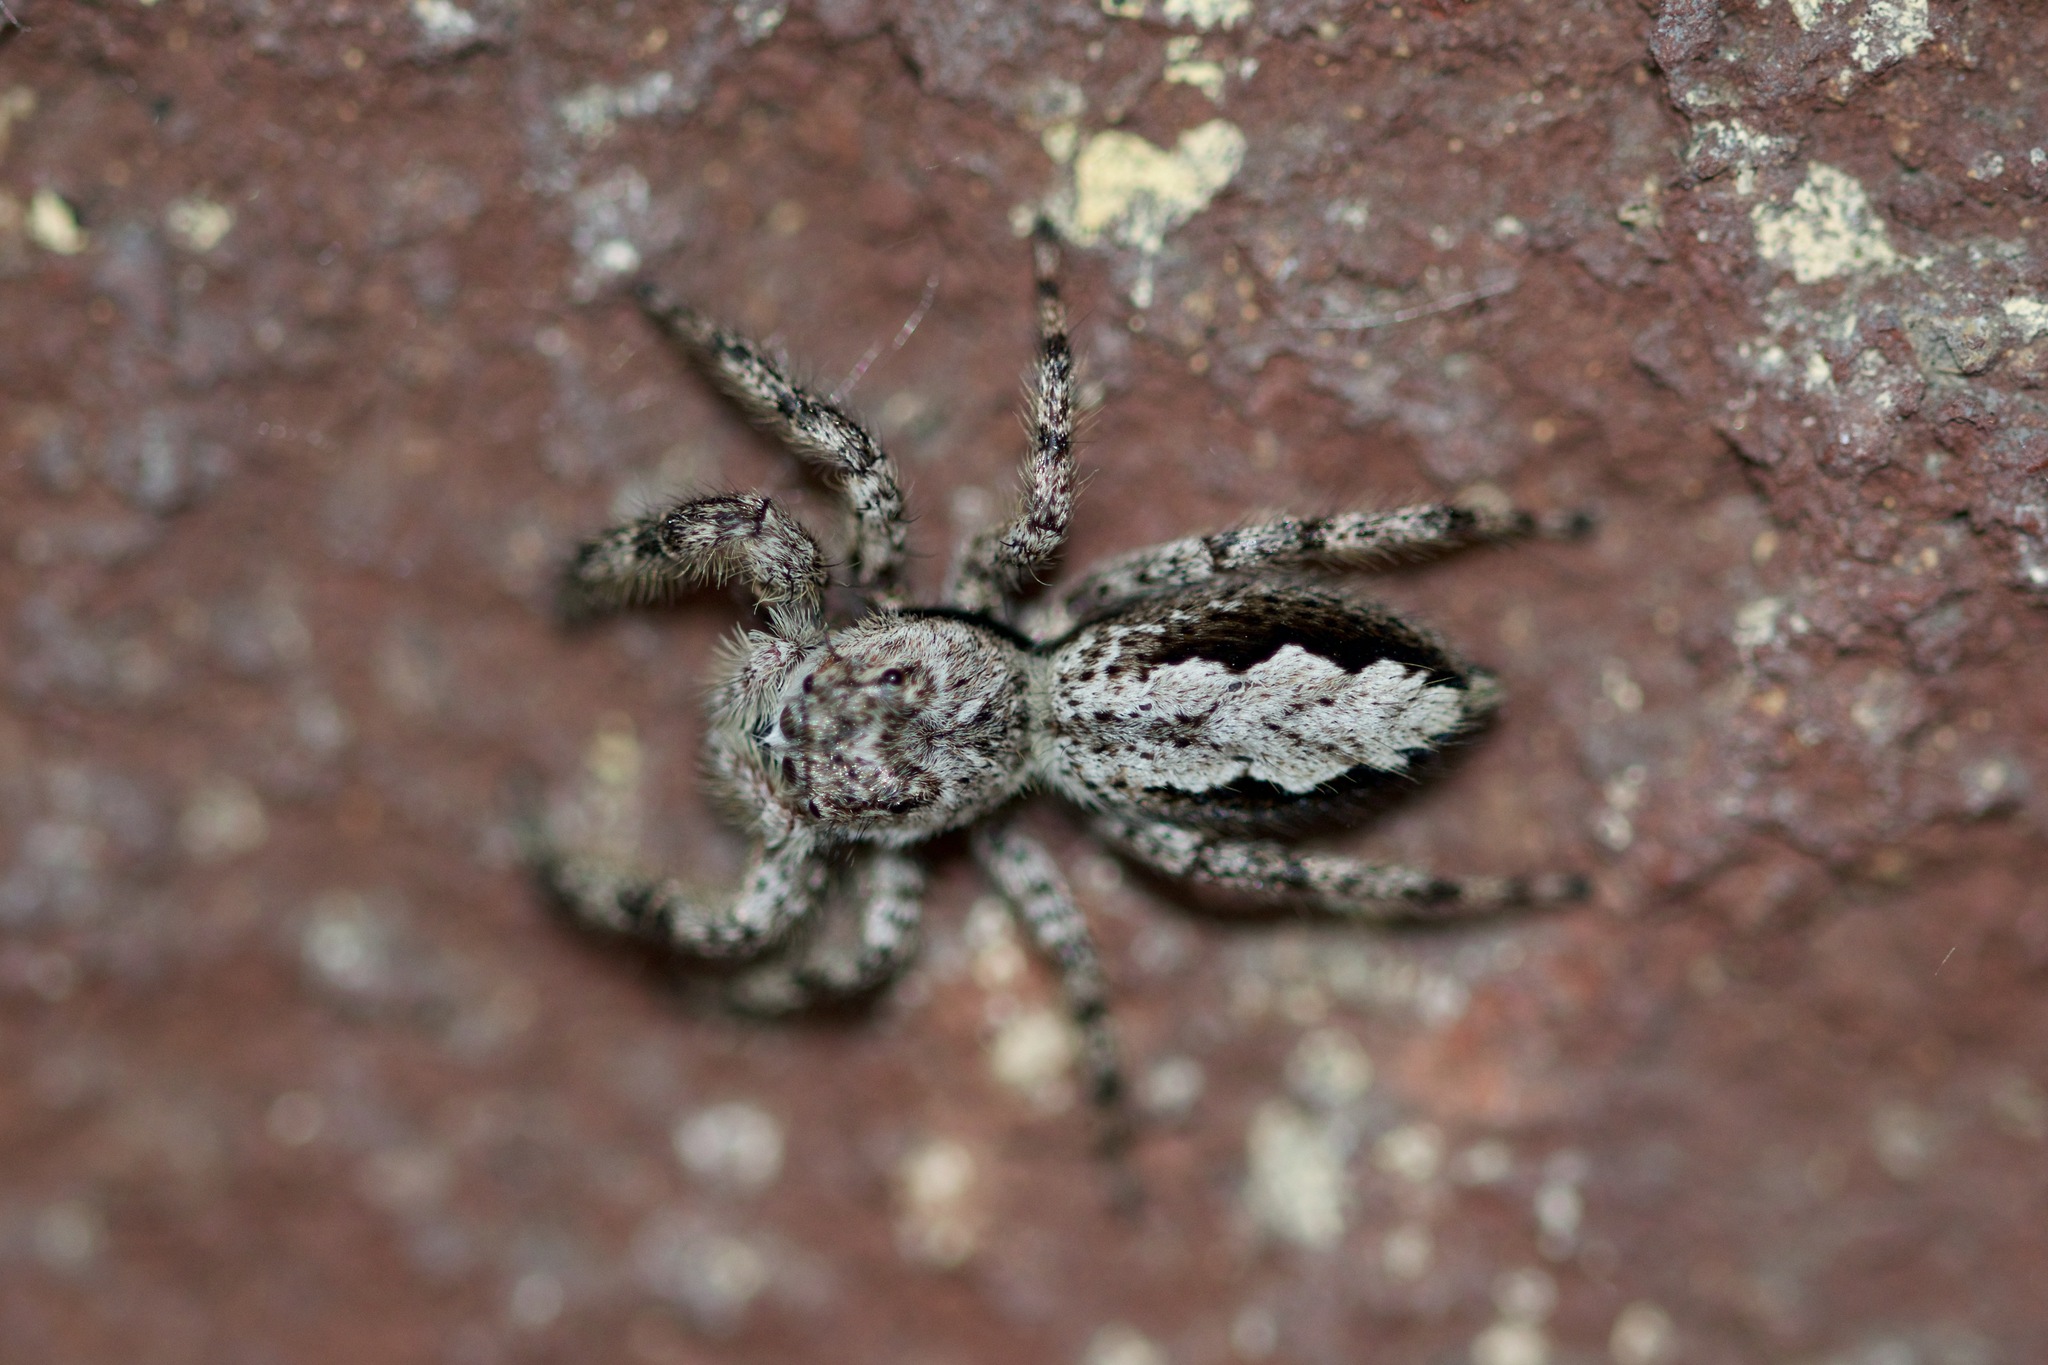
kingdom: Animalia
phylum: Arthropoda
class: Arachnida
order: Araneae
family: Salticidae
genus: Platycryptus
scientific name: Platycryptus undatus
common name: Tan jumping spider
